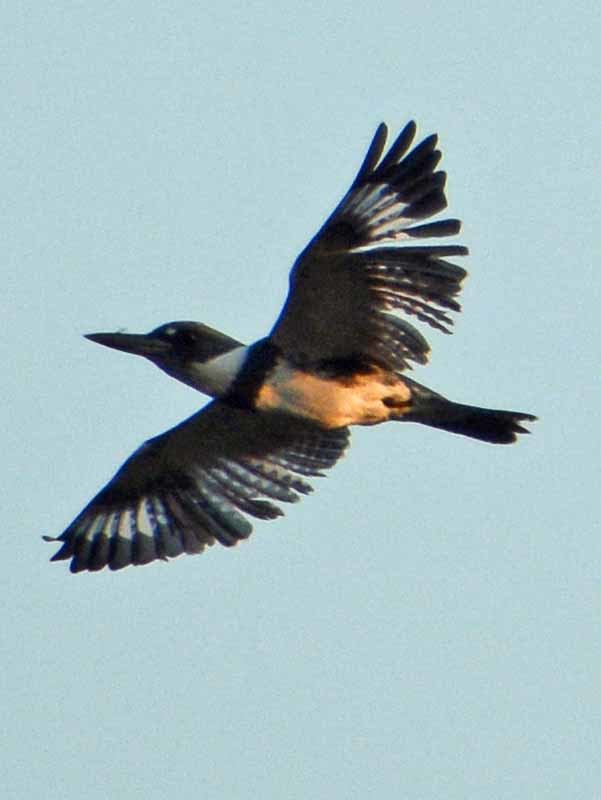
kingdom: Animalia
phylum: Chordata
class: Aves
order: Coraciiformes
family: Alcedinidae
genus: Megaceryle
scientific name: Megaceryle alcyon
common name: Belted kingfisher
